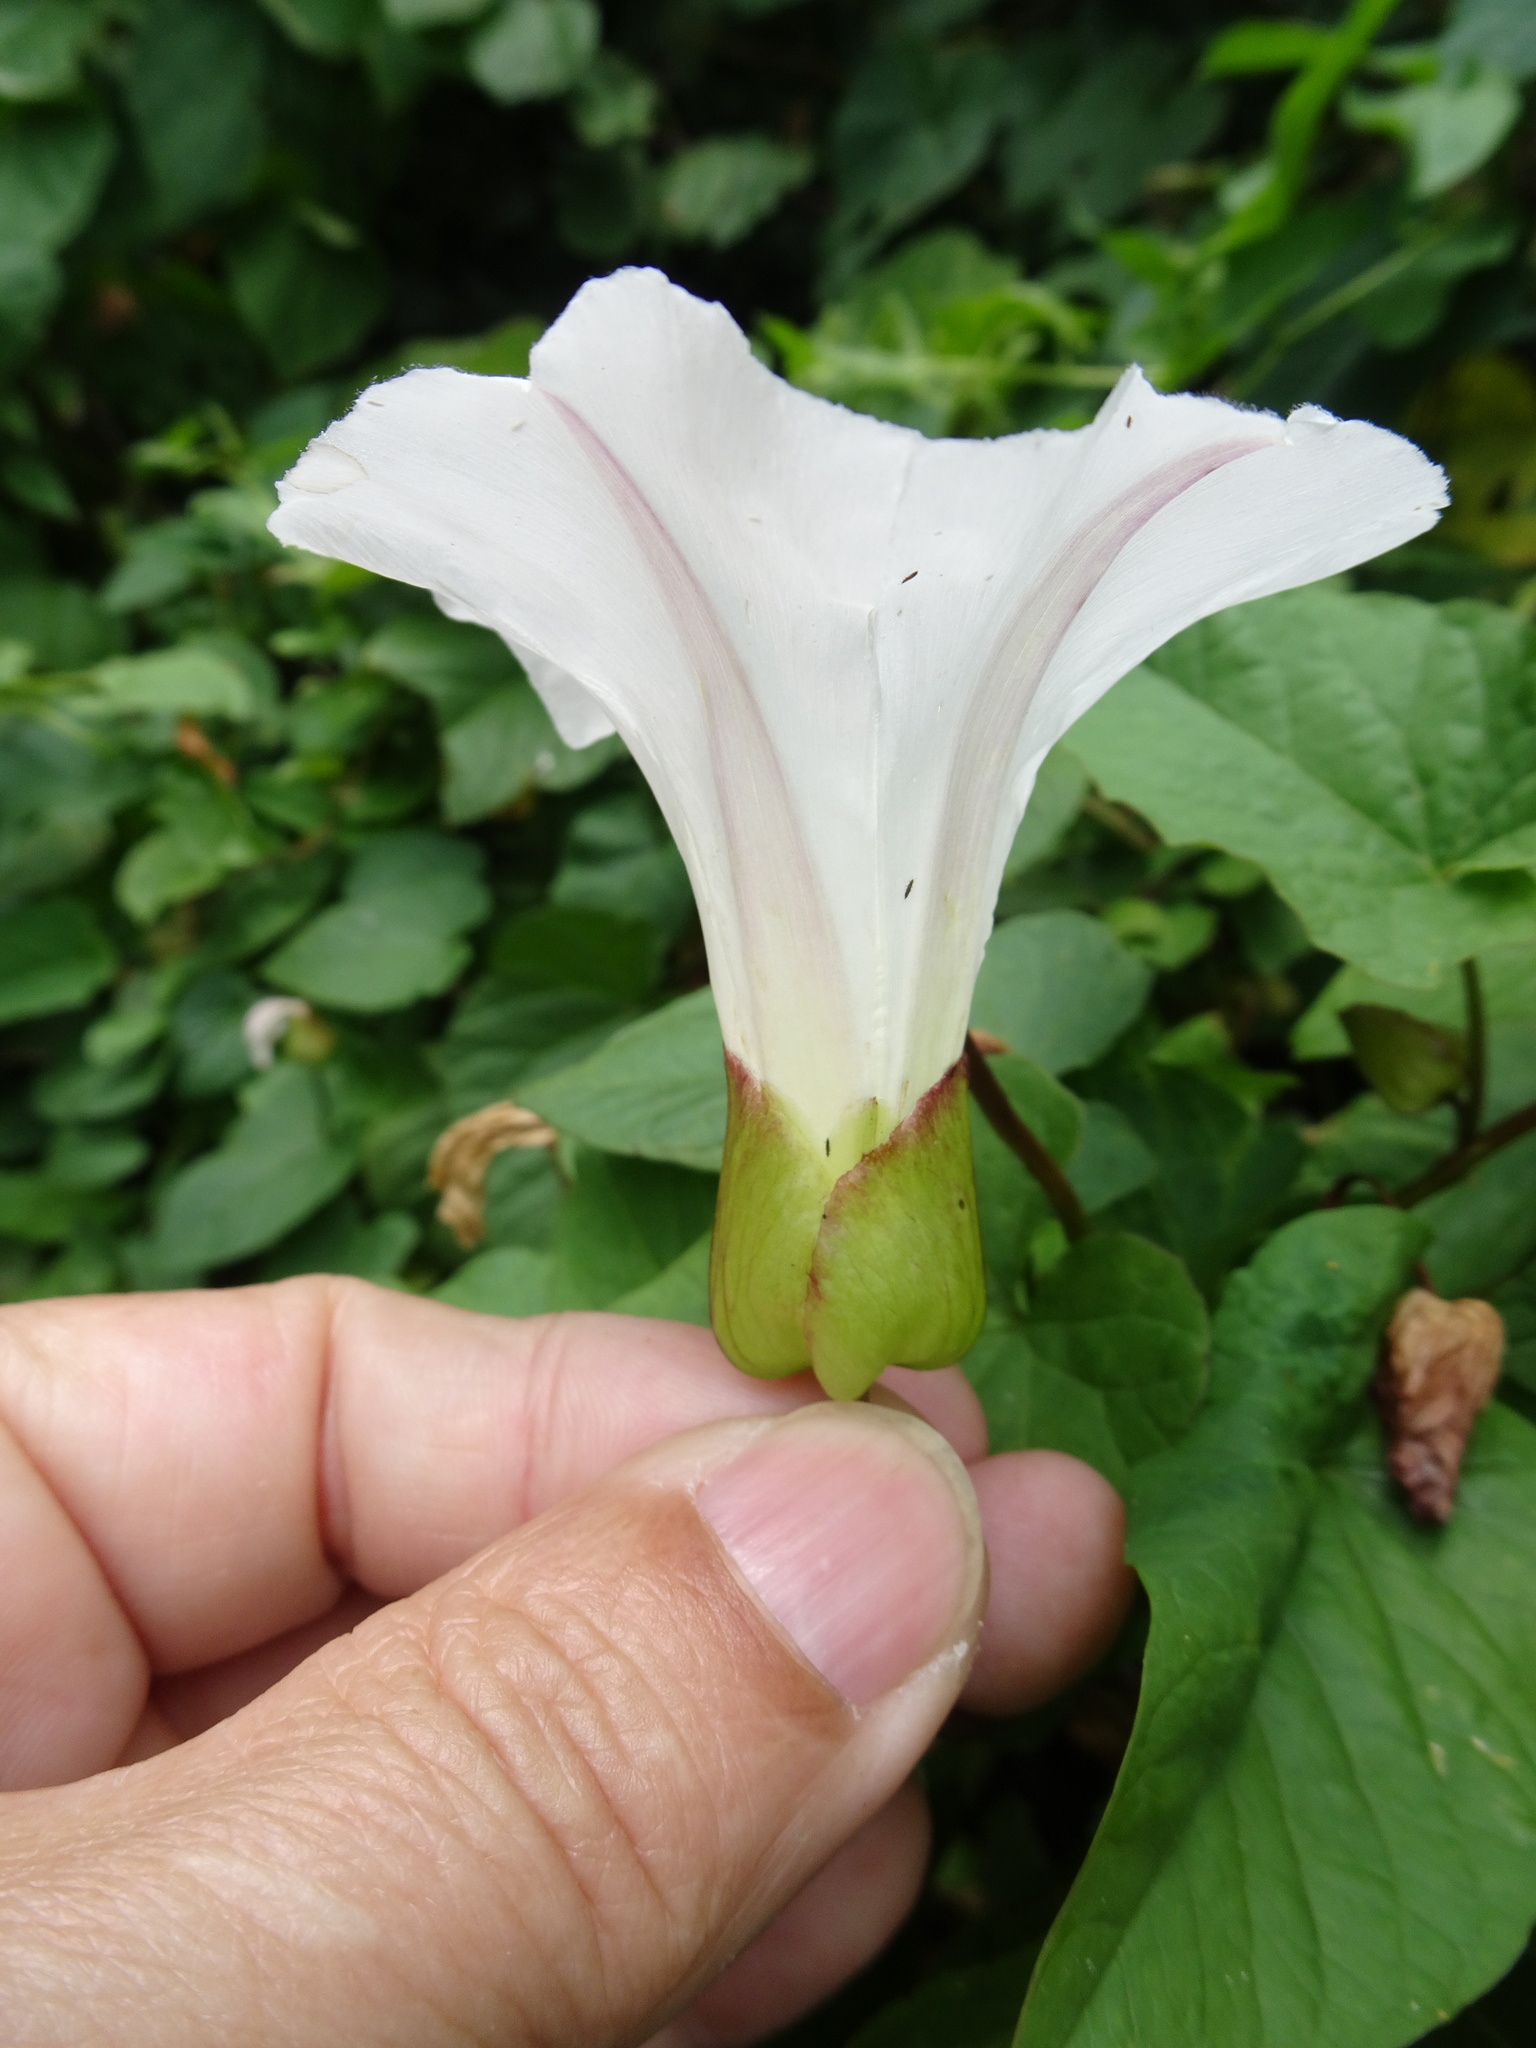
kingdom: Plantae
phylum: Tracheophyta
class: Magnoliopsida
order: Solanales
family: Convolvulaceae
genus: Calystegia
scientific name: Calystegia silvatica
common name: Large bindweed
